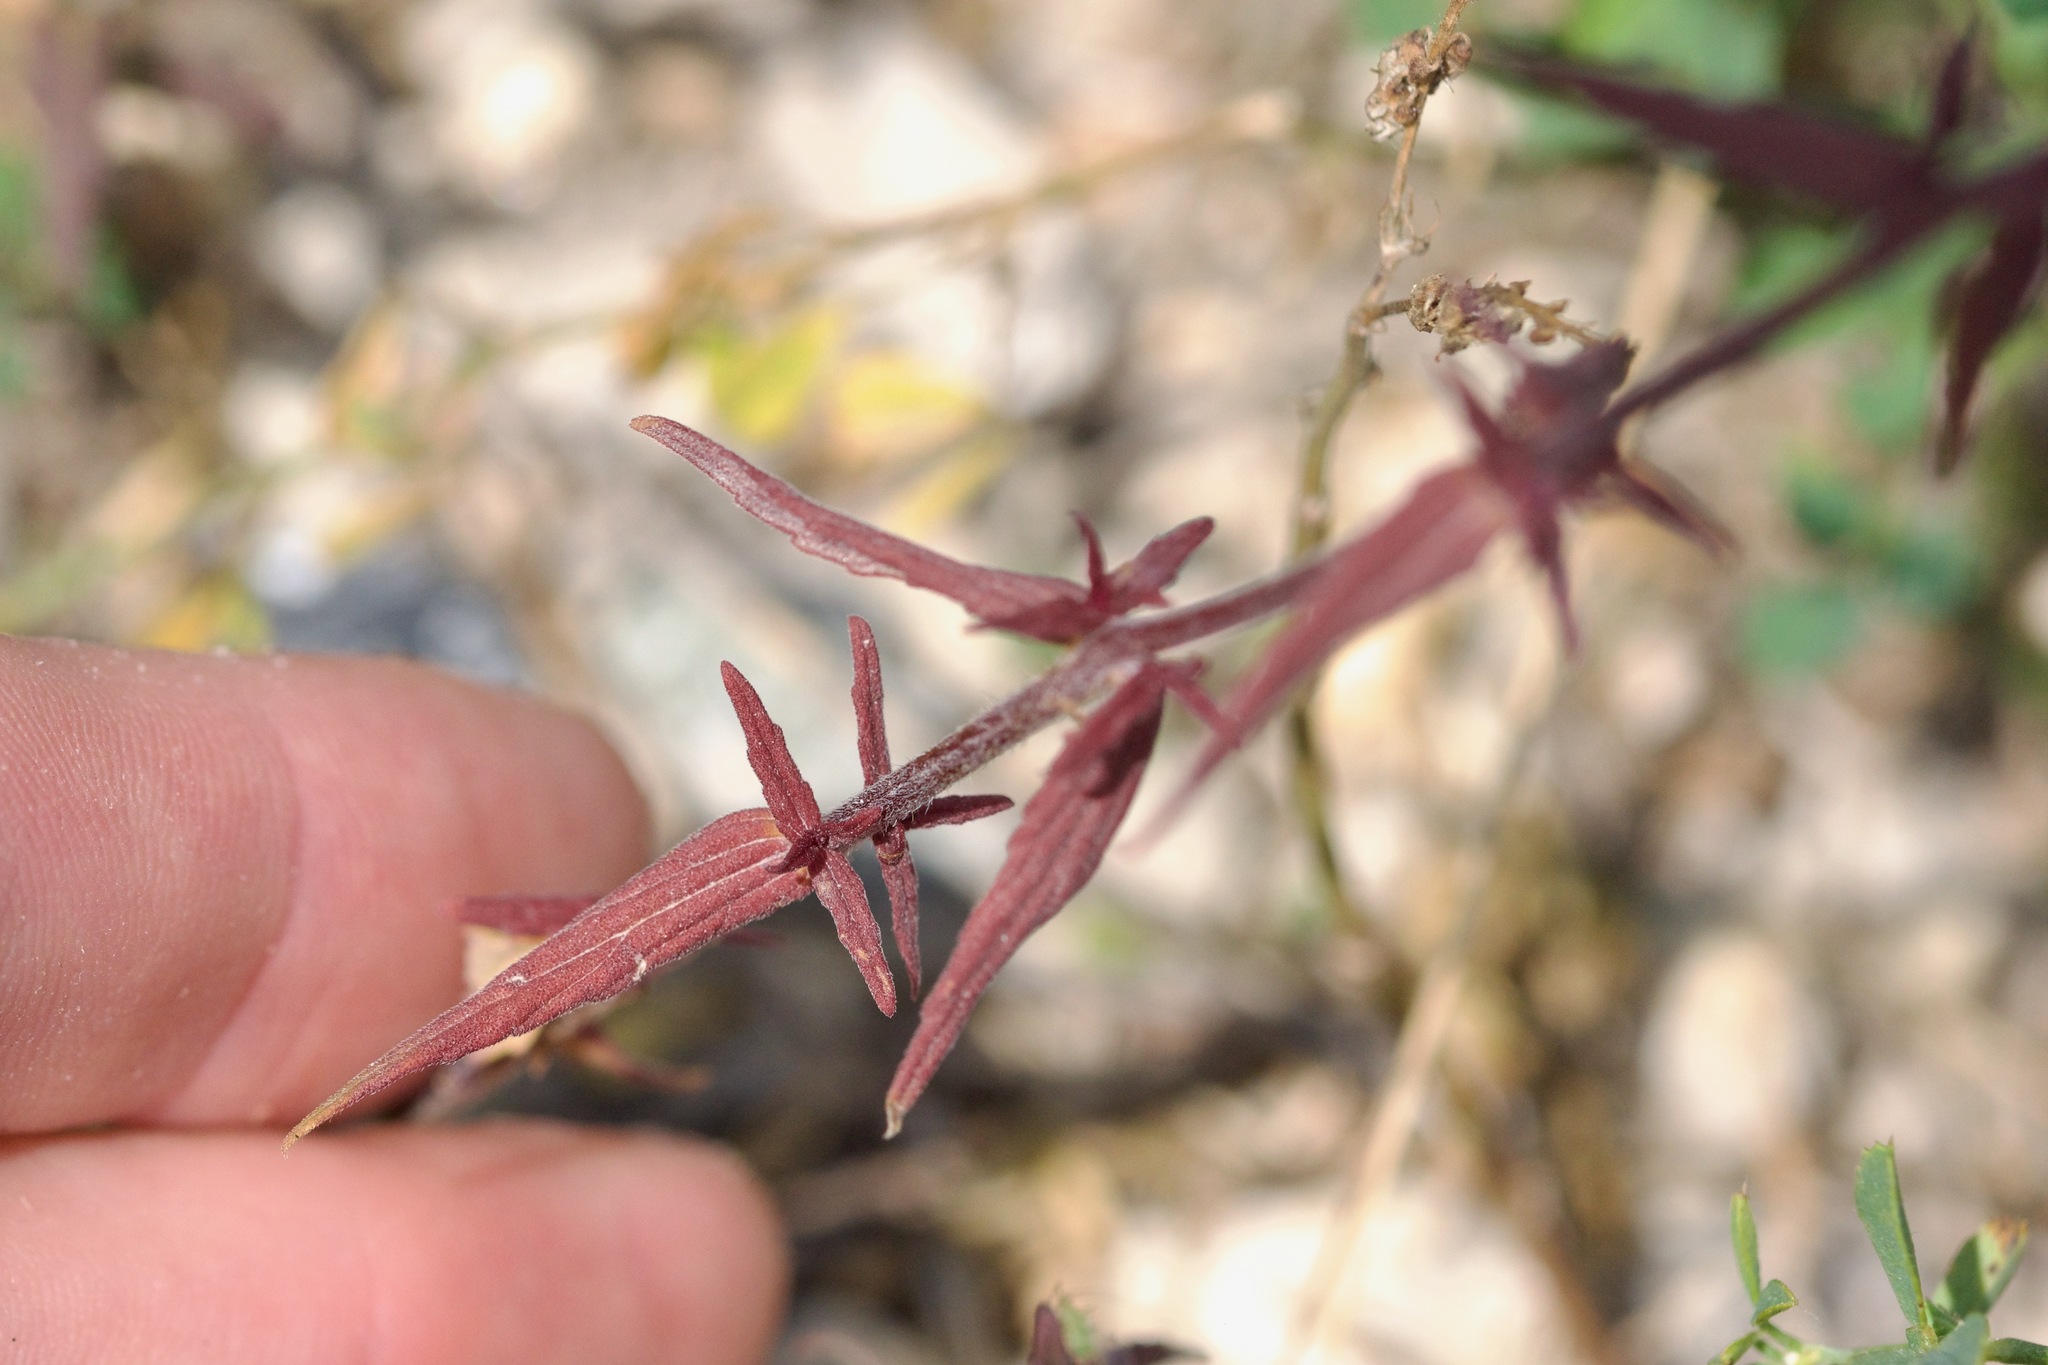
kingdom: Plantae
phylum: Tracheophyta
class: Magnoliopsida
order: Lamiales
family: Orobanchaceae
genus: Odontites
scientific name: Odontites vulgaris
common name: Broomrape
